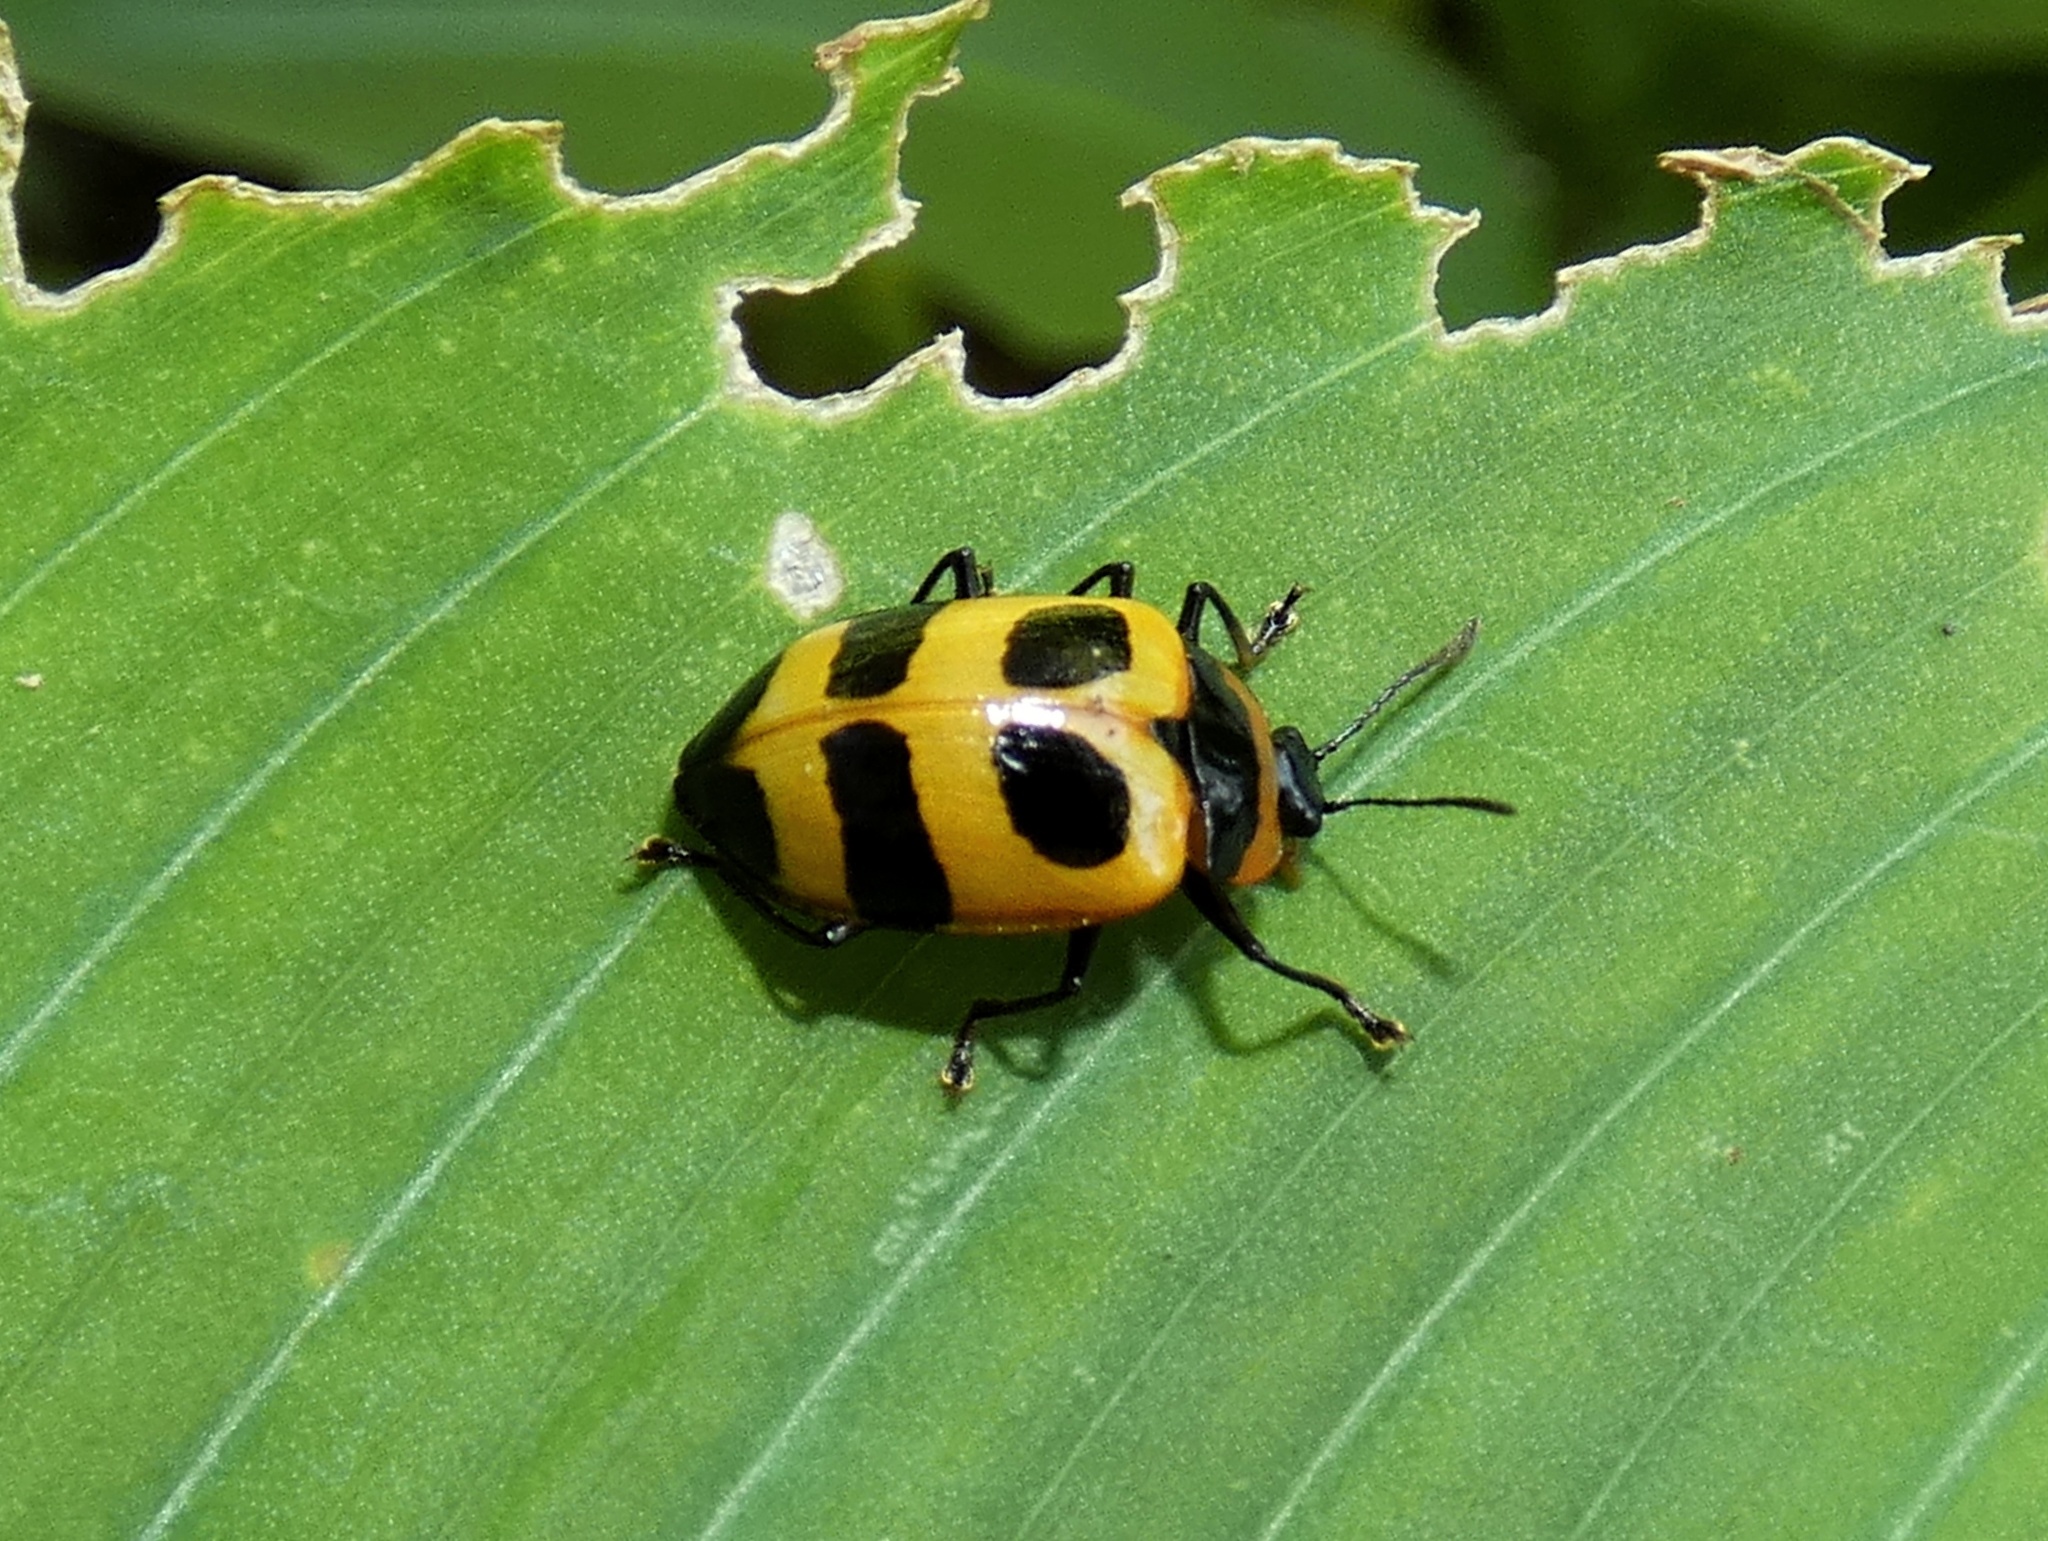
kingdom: Animalia
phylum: Arthropoda
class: Insecta
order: Coleoptera
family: Erotylidae
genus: Oligocorynus
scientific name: Oligocorynus
